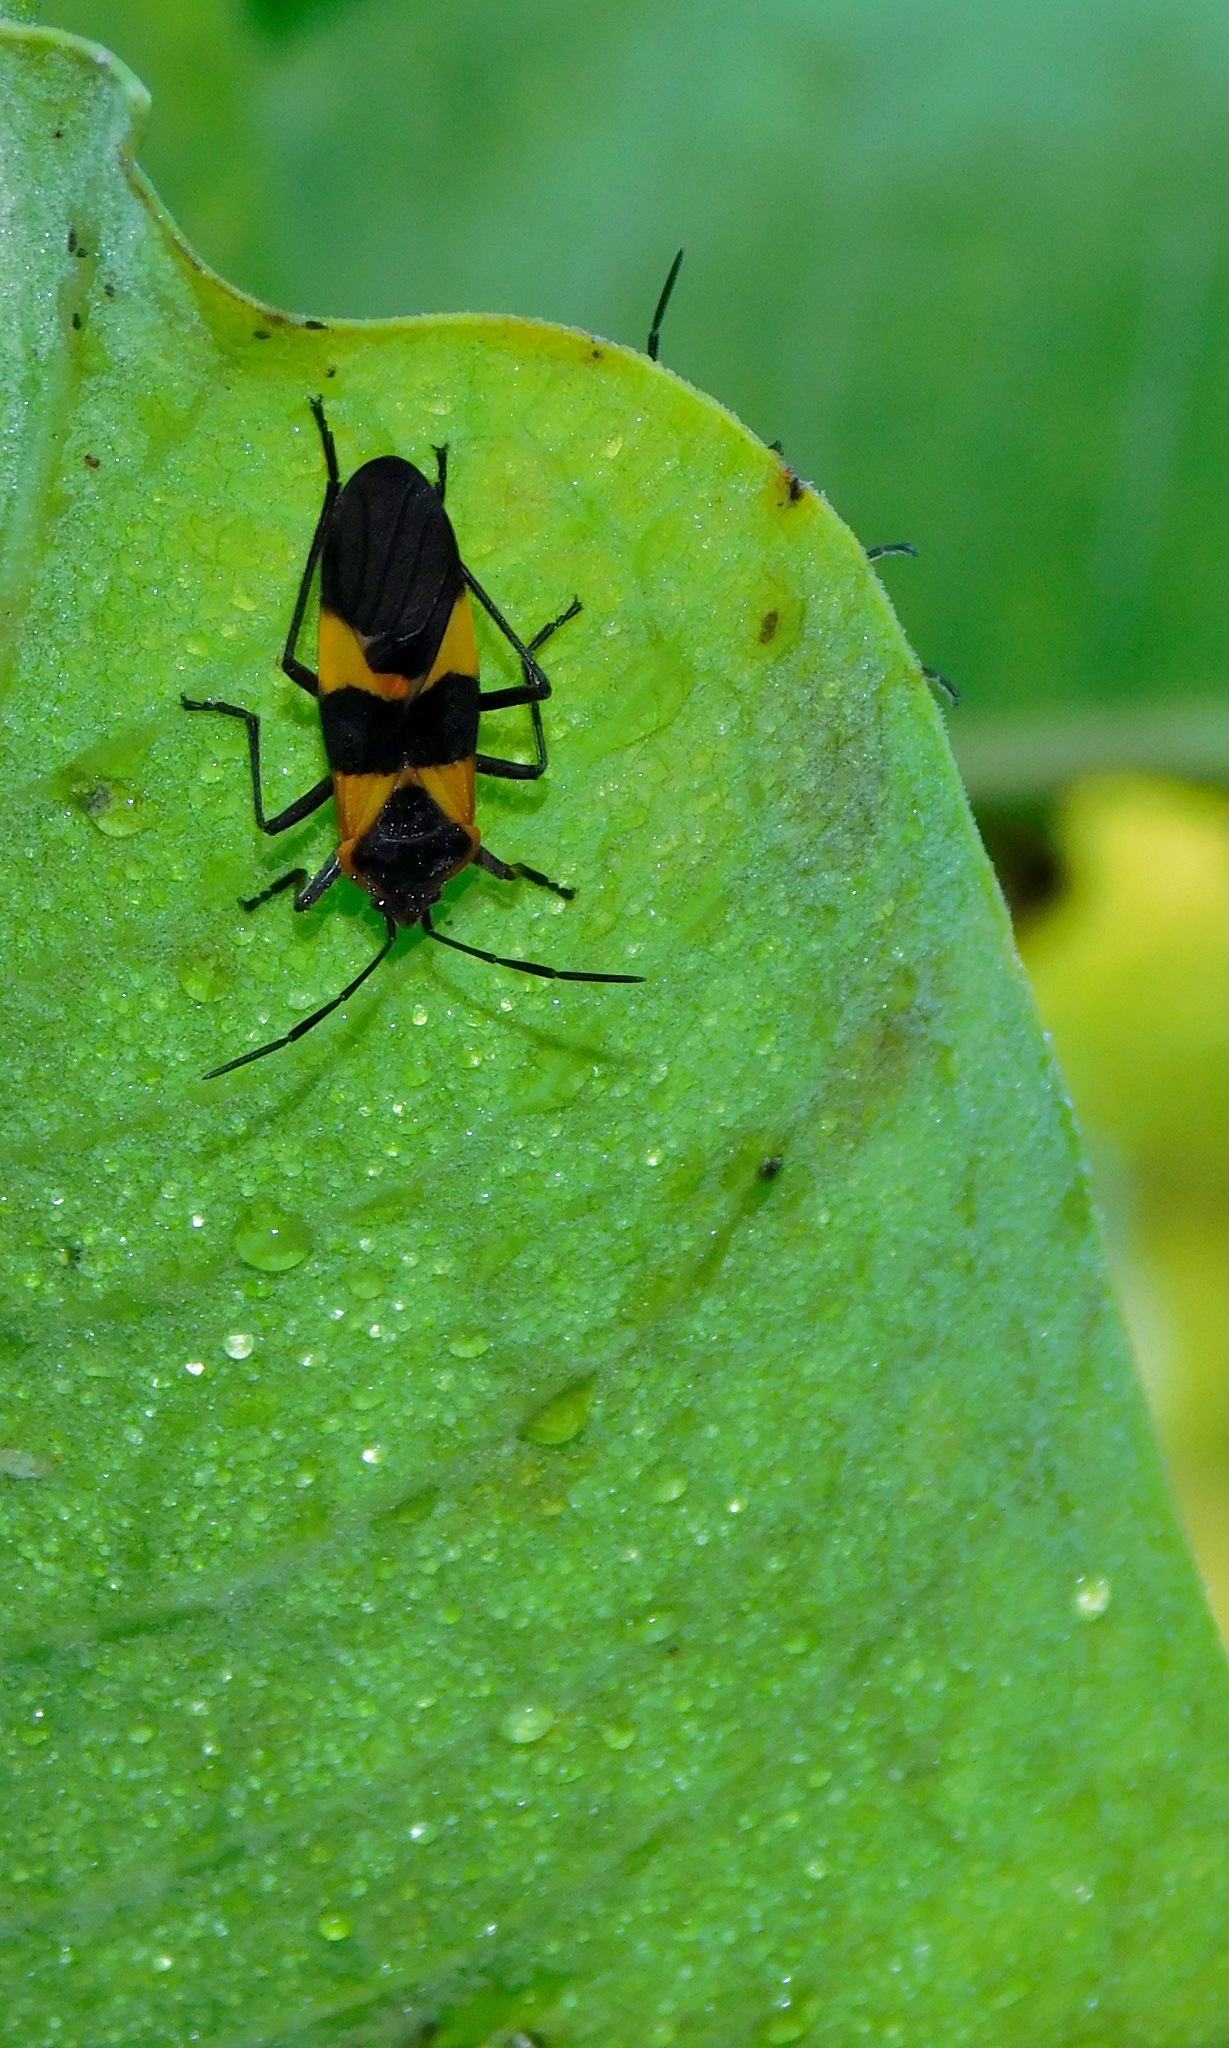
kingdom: Animalia
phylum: Arthropoda
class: Insecta
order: Hemiptera
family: Lygaeidae
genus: Oncopeltus
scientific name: Oncopeltus fasciatus
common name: Large milkweed bug
